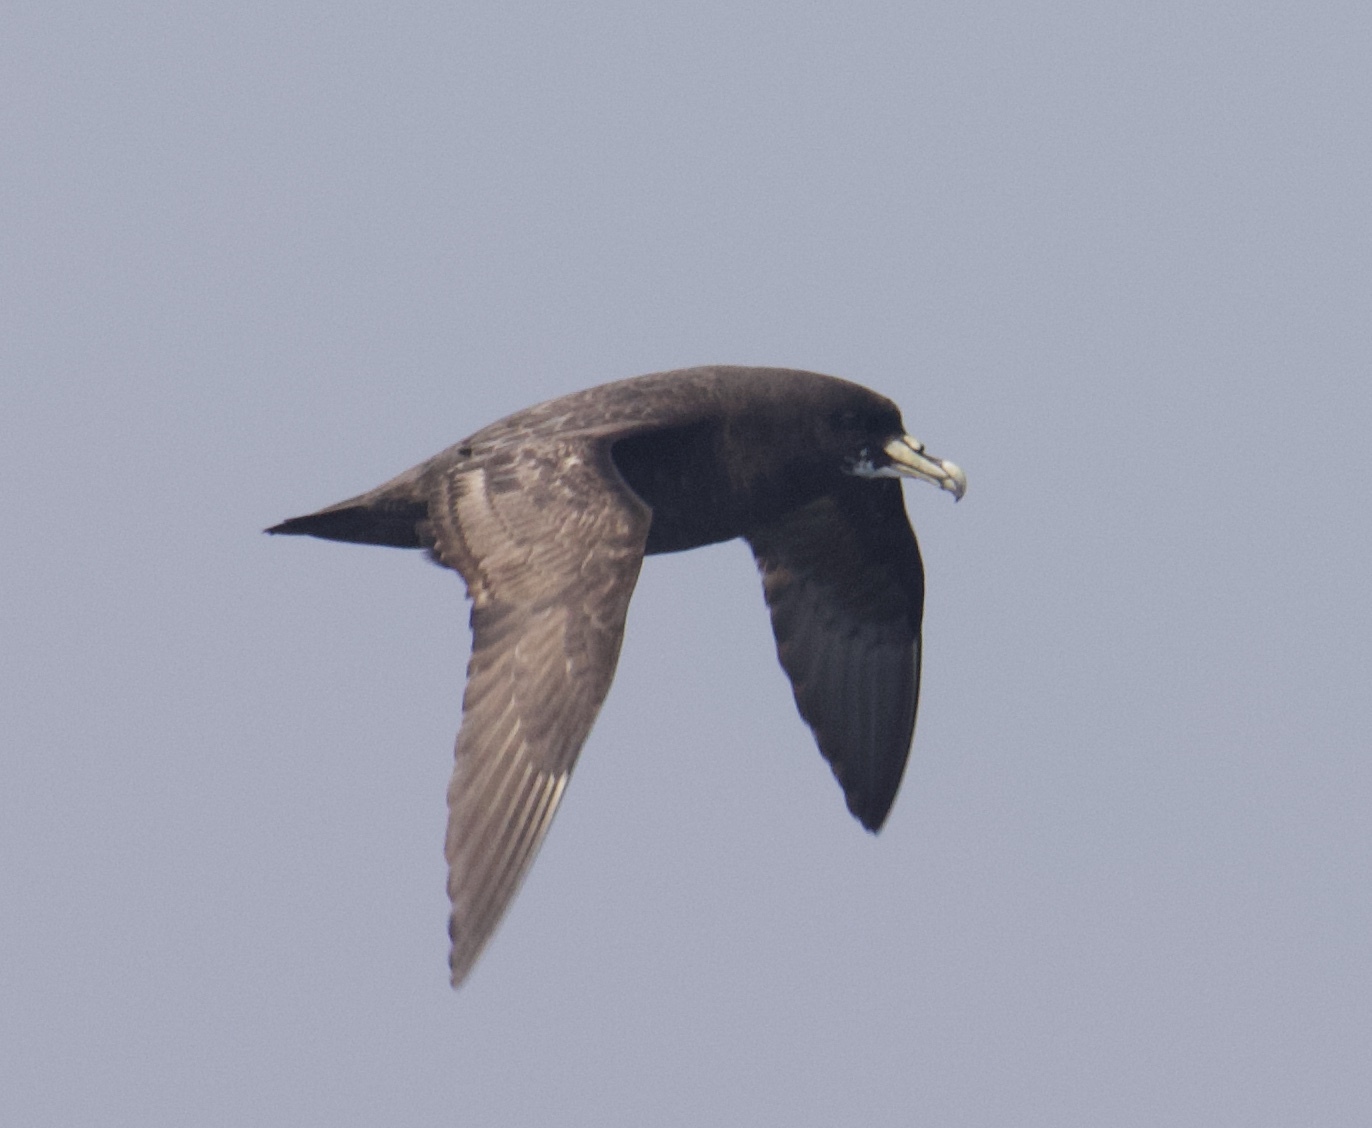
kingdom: Animalia
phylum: Chordata
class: Aves
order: Procellariiformes
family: Procellariidae
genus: Procellaria
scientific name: Procellaria aequinoctialis
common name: White-chinned petrel
